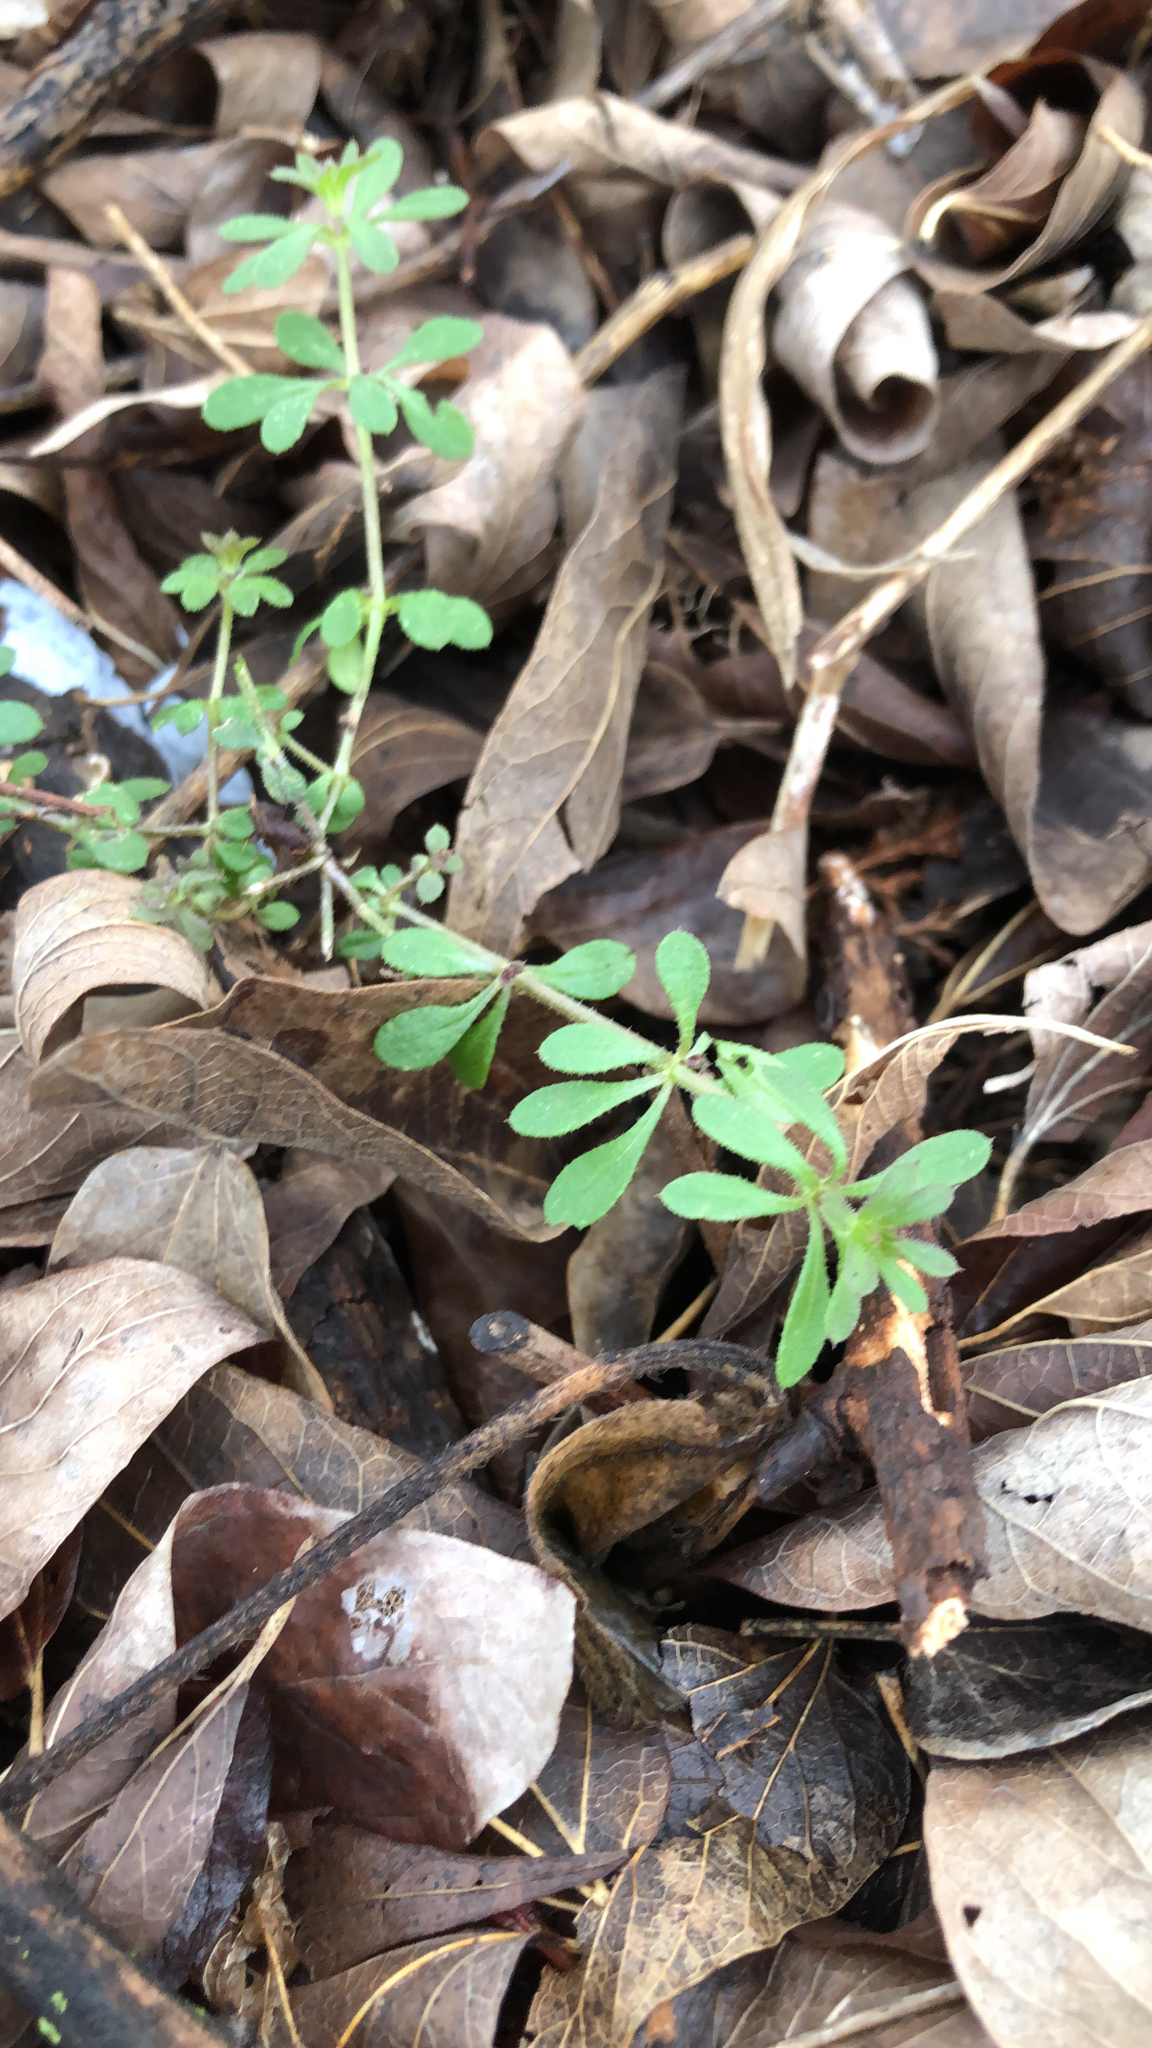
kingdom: Plantae
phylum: Tracheophyta
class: Magnoliopsida
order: Gentianales
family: Rubiaceae
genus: Galium
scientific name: Galium aparine
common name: Cleavers
